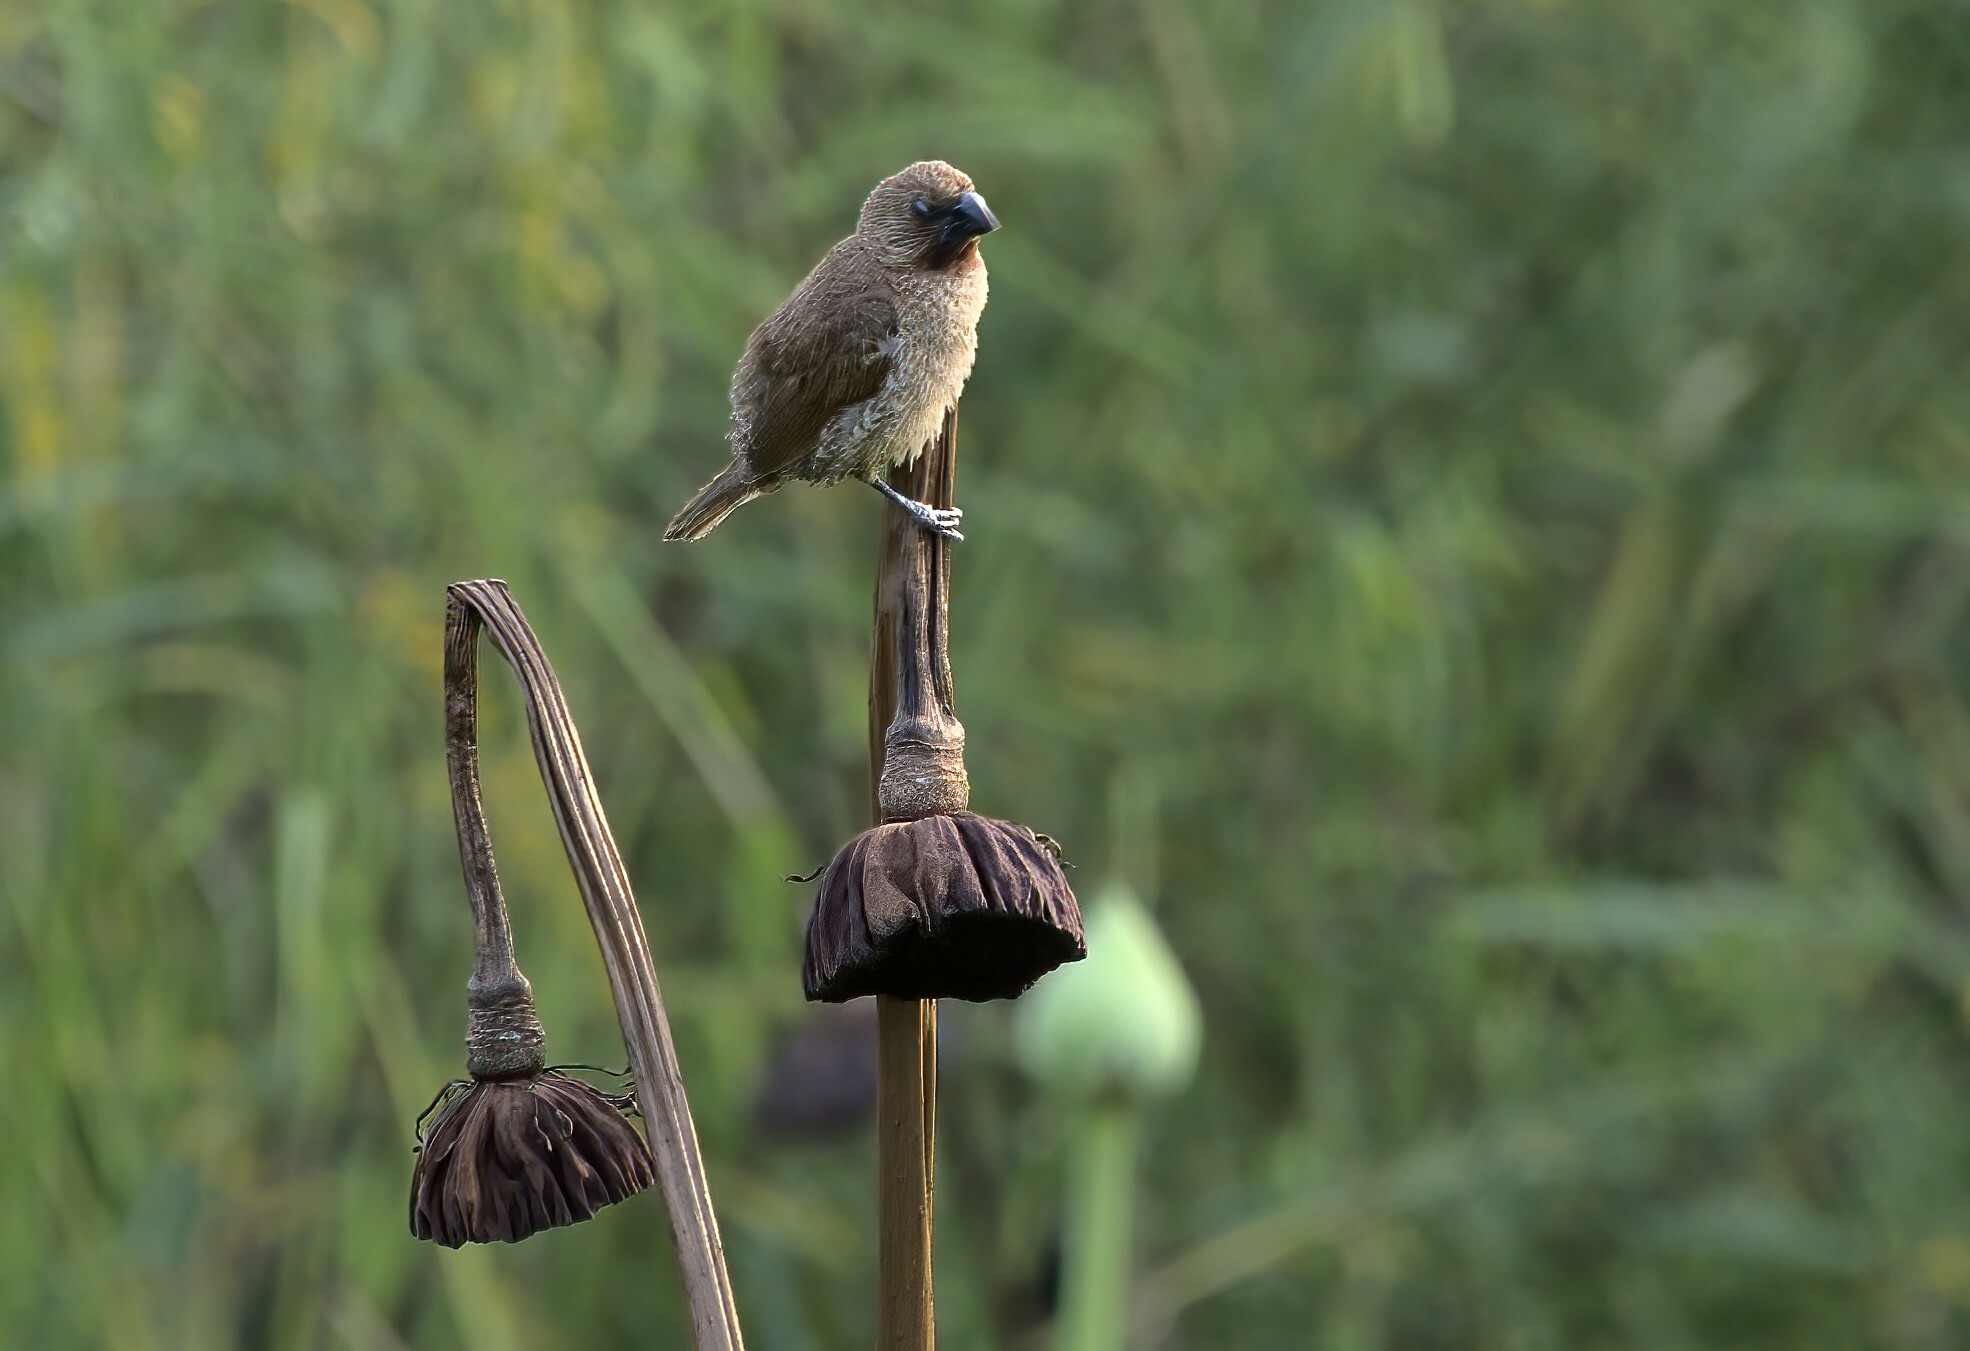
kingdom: Animalia
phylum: Chordata
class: Aves
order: Passeriformes
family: Estrildidae
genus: Lonchura
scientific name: Lonchura punctulata
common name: Scaly-breasted munia
